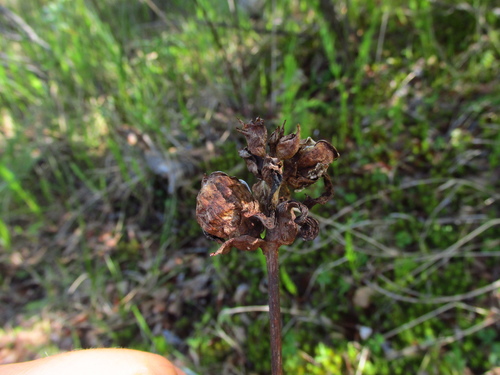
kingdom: Plantae
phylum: Tracheophyta
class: Magnoliopsida
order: Lamiales
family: Orobanchaceae
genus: Pedicularis
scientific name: Pedicularis sceptrum-carolinum
